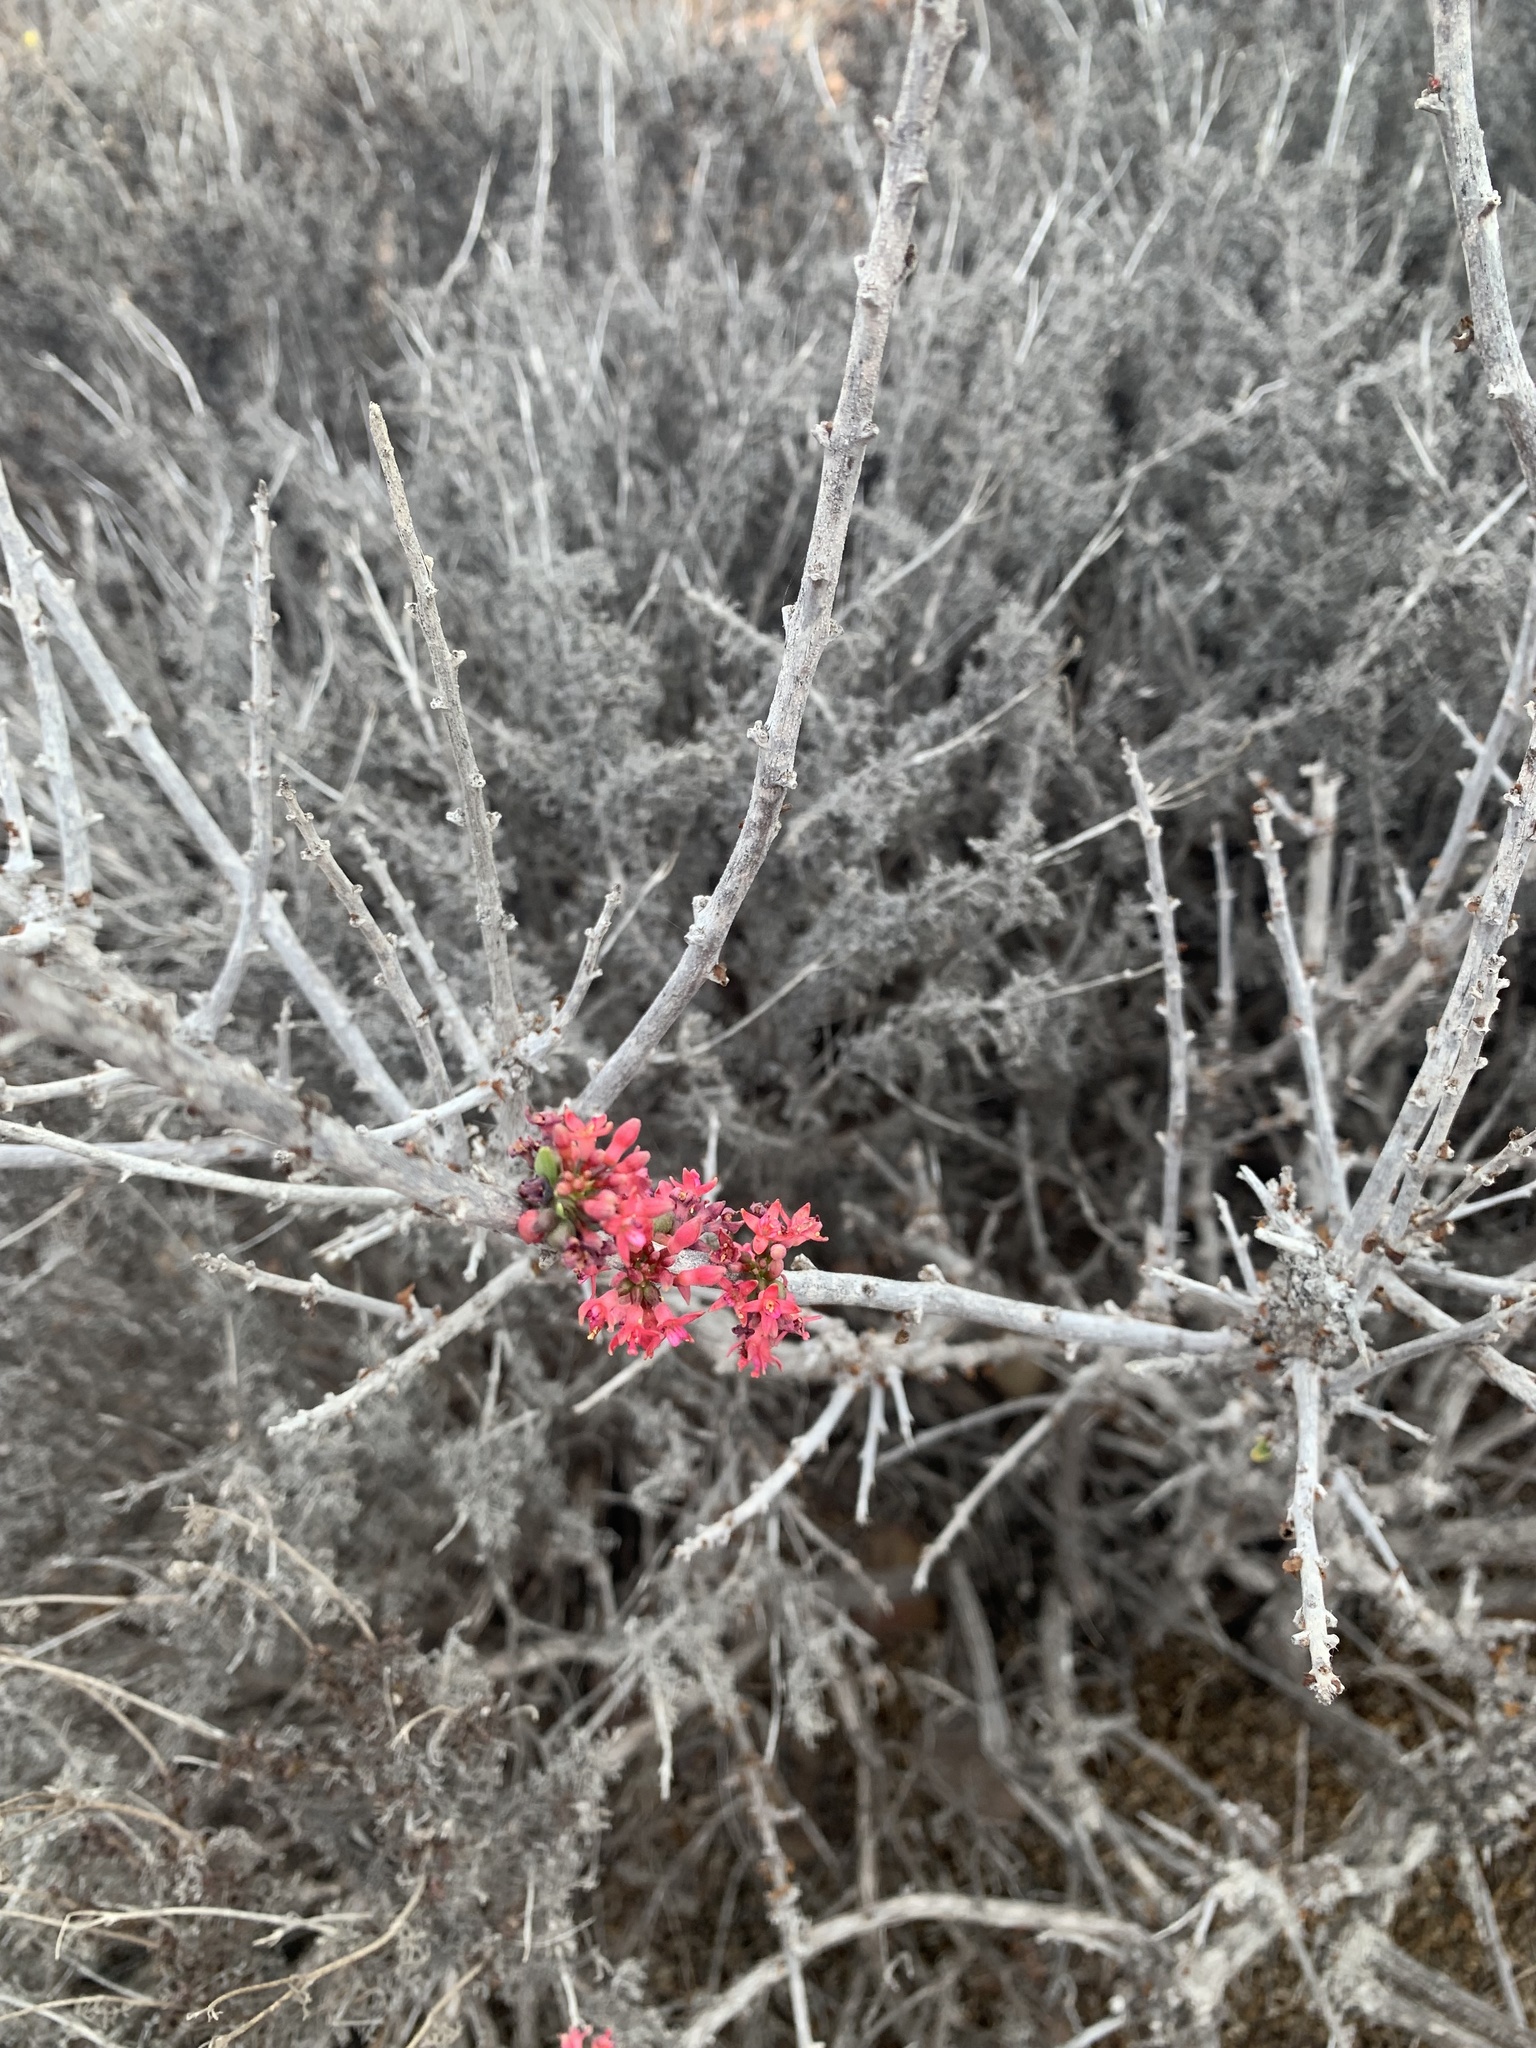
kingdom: Plantae
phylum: Tracheophyta
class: Magnoliopsida
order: Myrtales
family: Onagraceae
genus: Fuchsia
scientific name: Fuchsia lycioides
